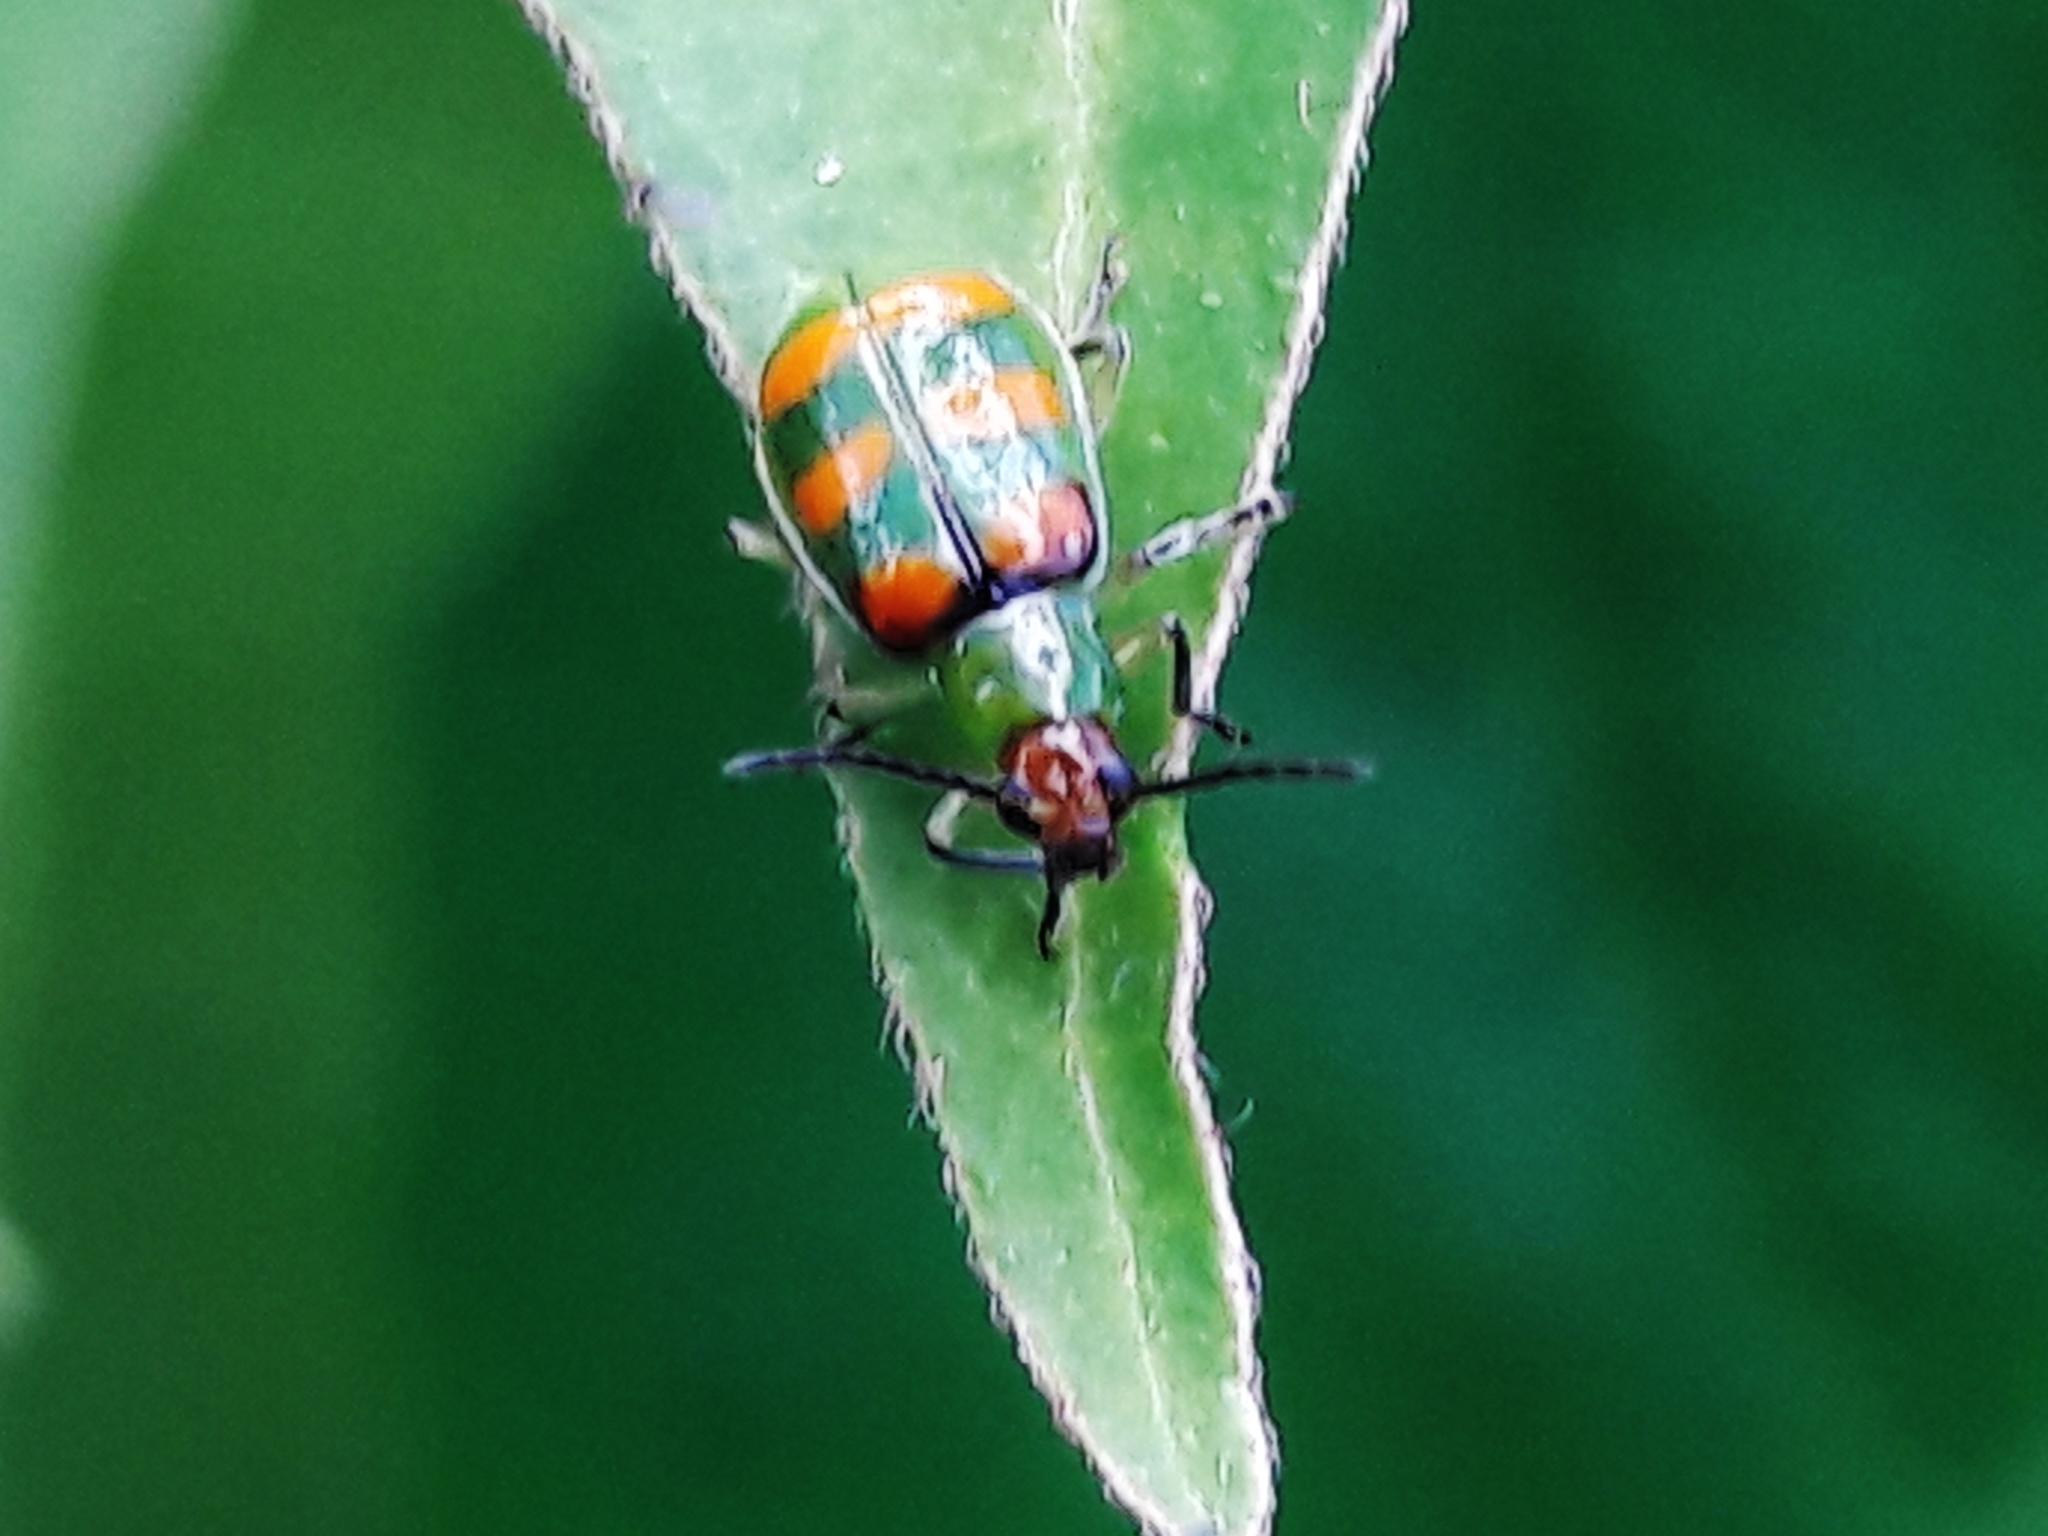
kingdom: Animalia
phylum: Arthropoda
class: Insecta
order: Coleoptera
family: Chrysomelidae
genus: Diabrotica
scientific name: Diabrotica speciosa
